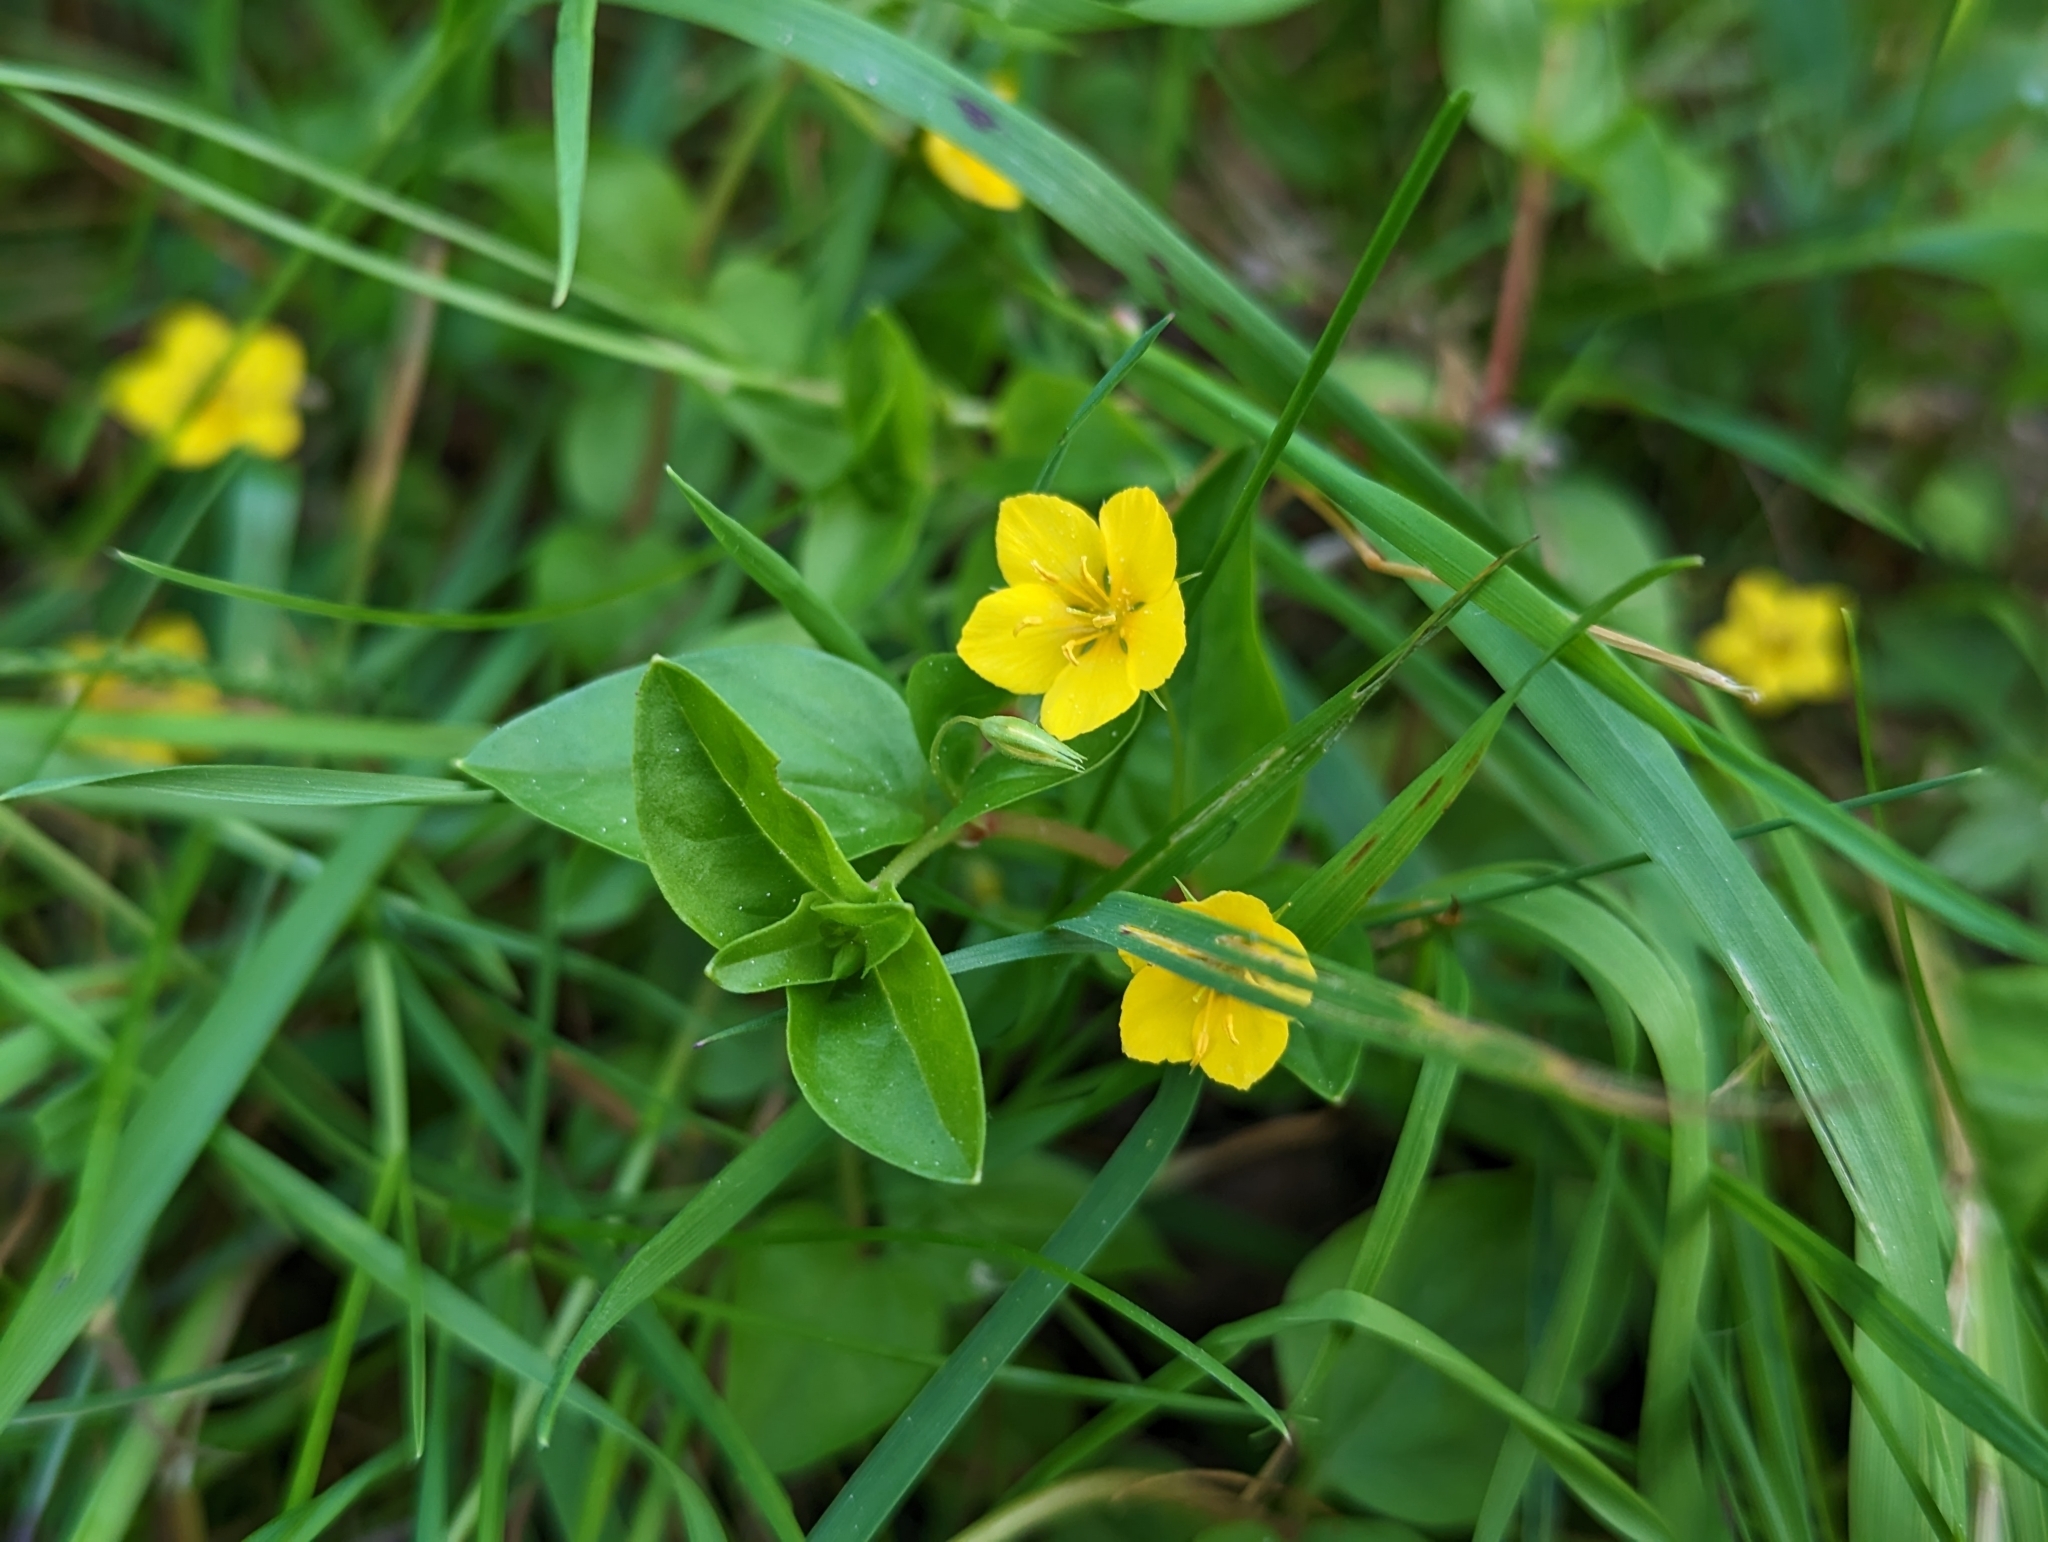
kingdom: Plantae
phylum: Tracheophyta
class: Magnoliopsida
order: Ericales
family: Primulaceae
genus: Lysimachia
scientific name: Lysimachia nemorum
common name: Yellow pimpernel
